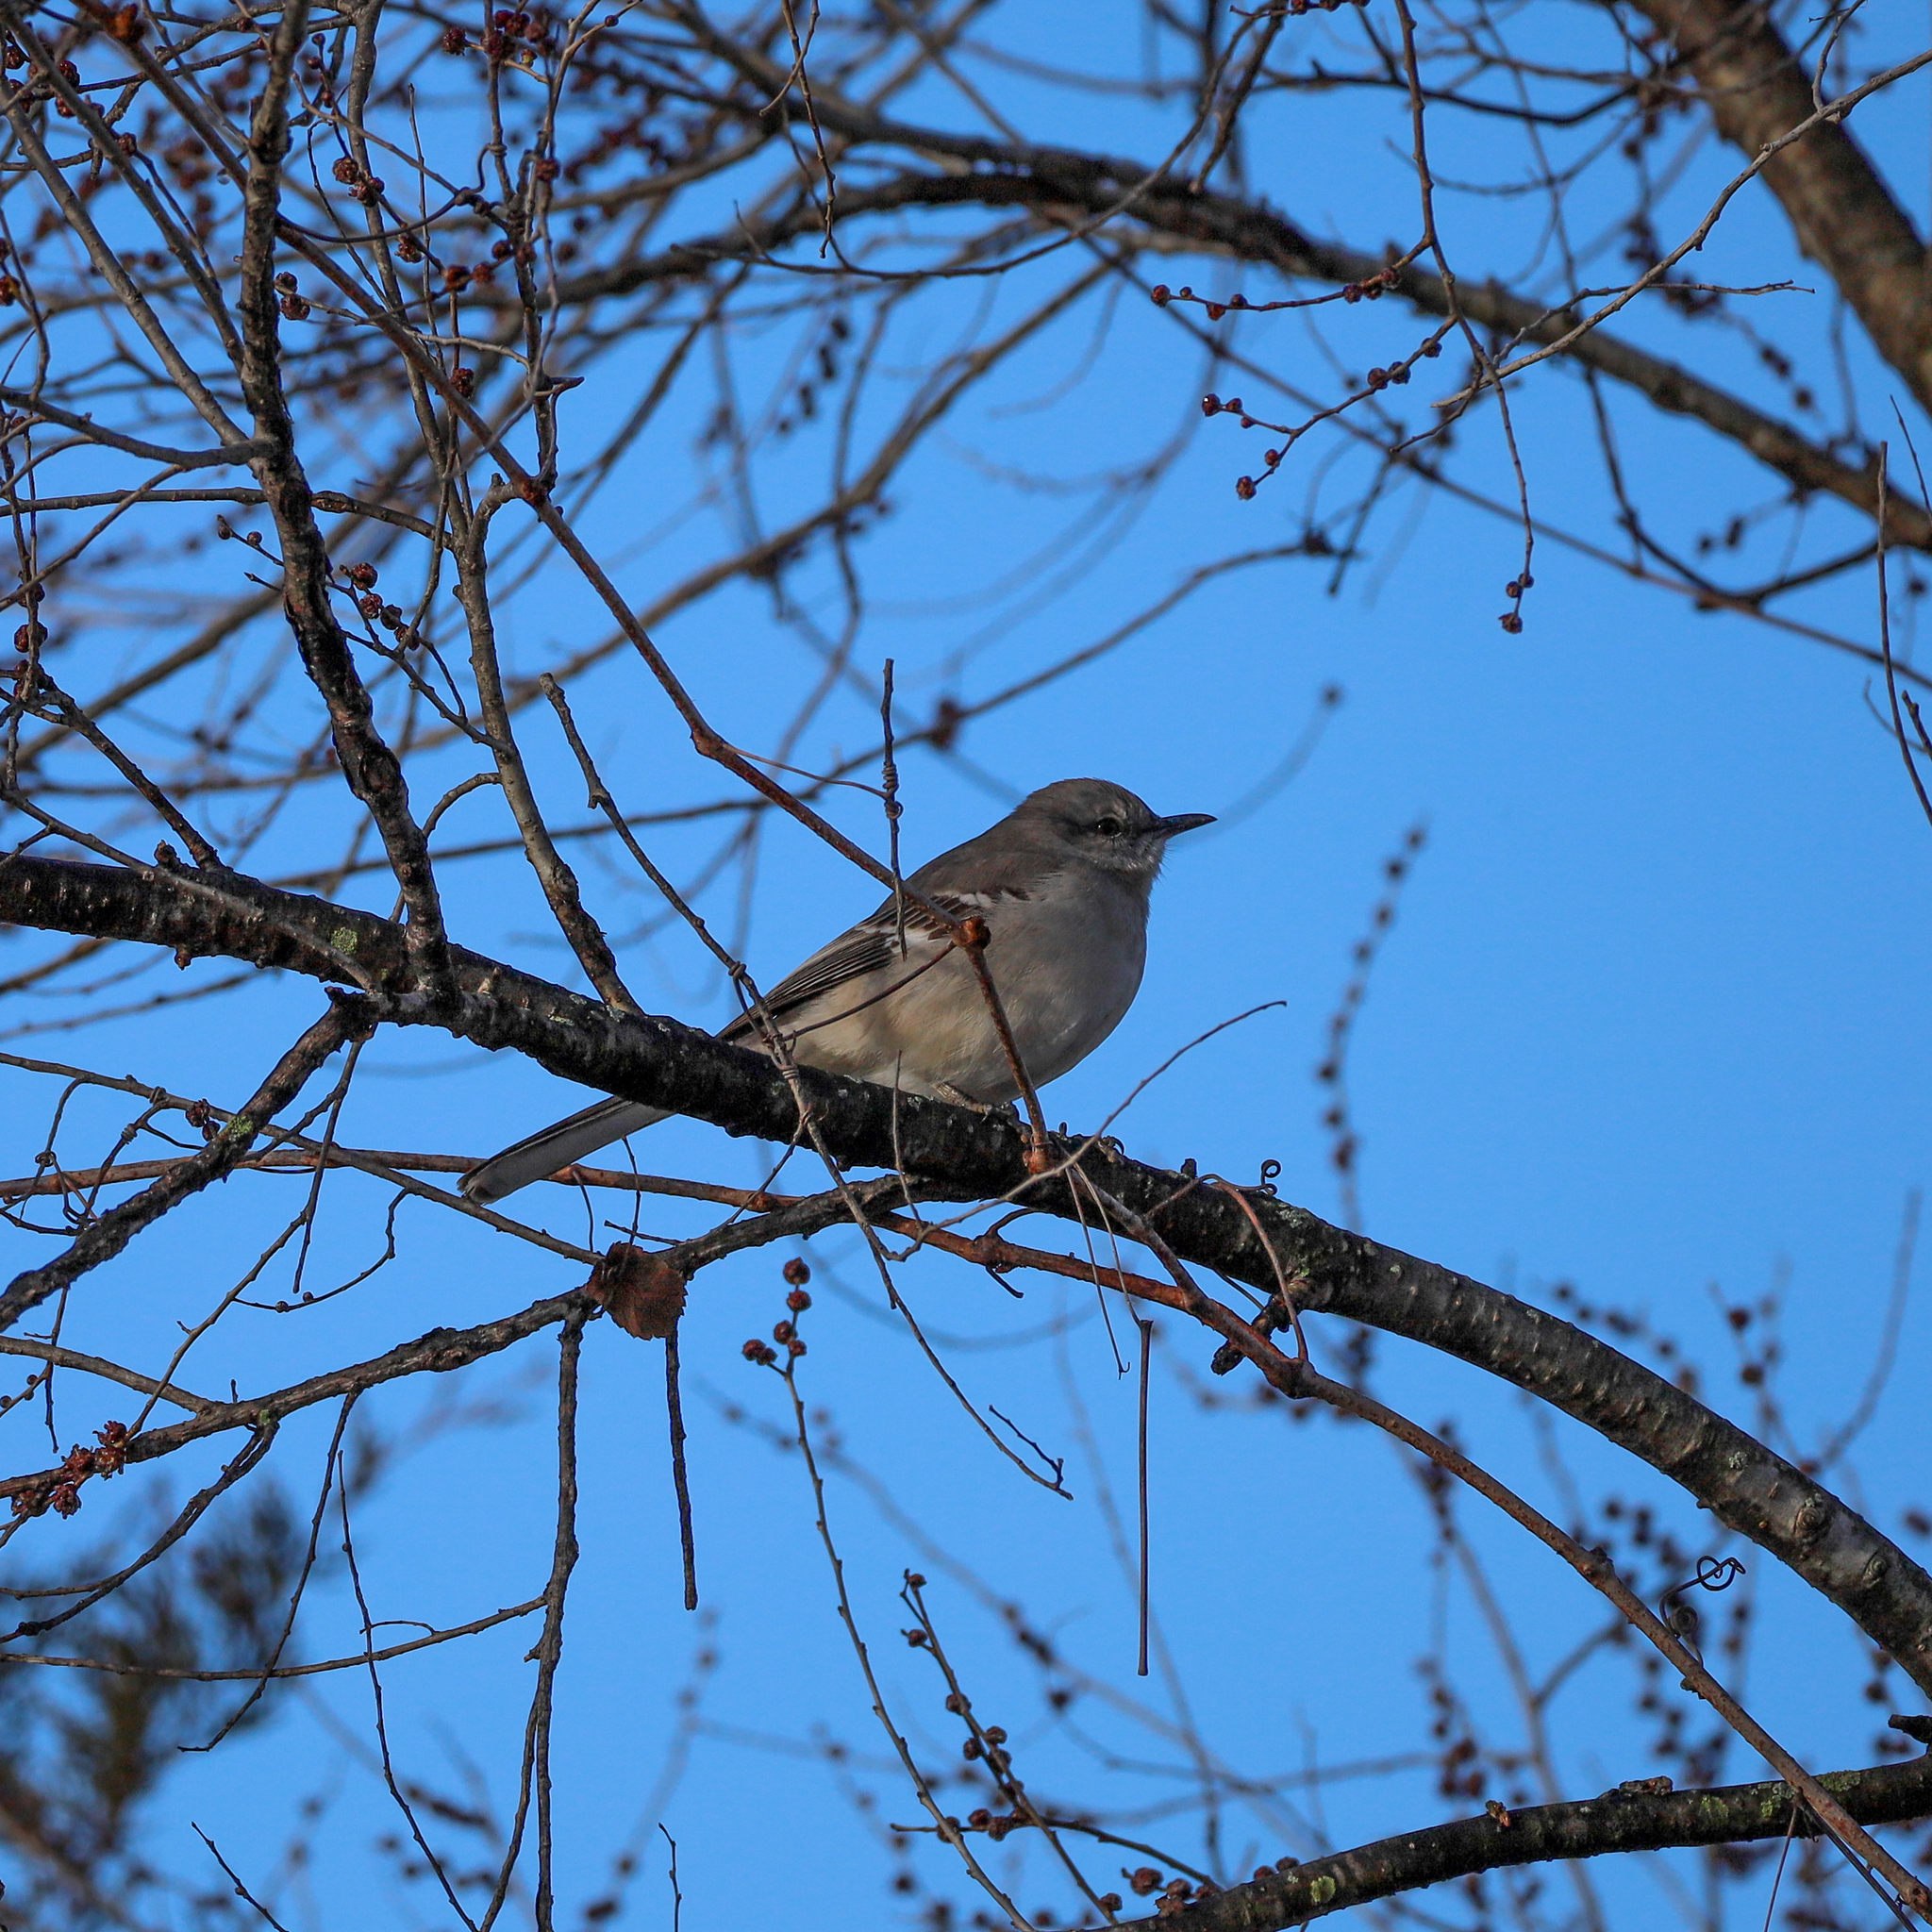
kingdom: Animalia
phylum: Chordata
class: Aves
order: Passeriformes
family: Mimidae
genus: Mimus
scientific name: Mimus polyglottos
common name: Northern mockingbird
